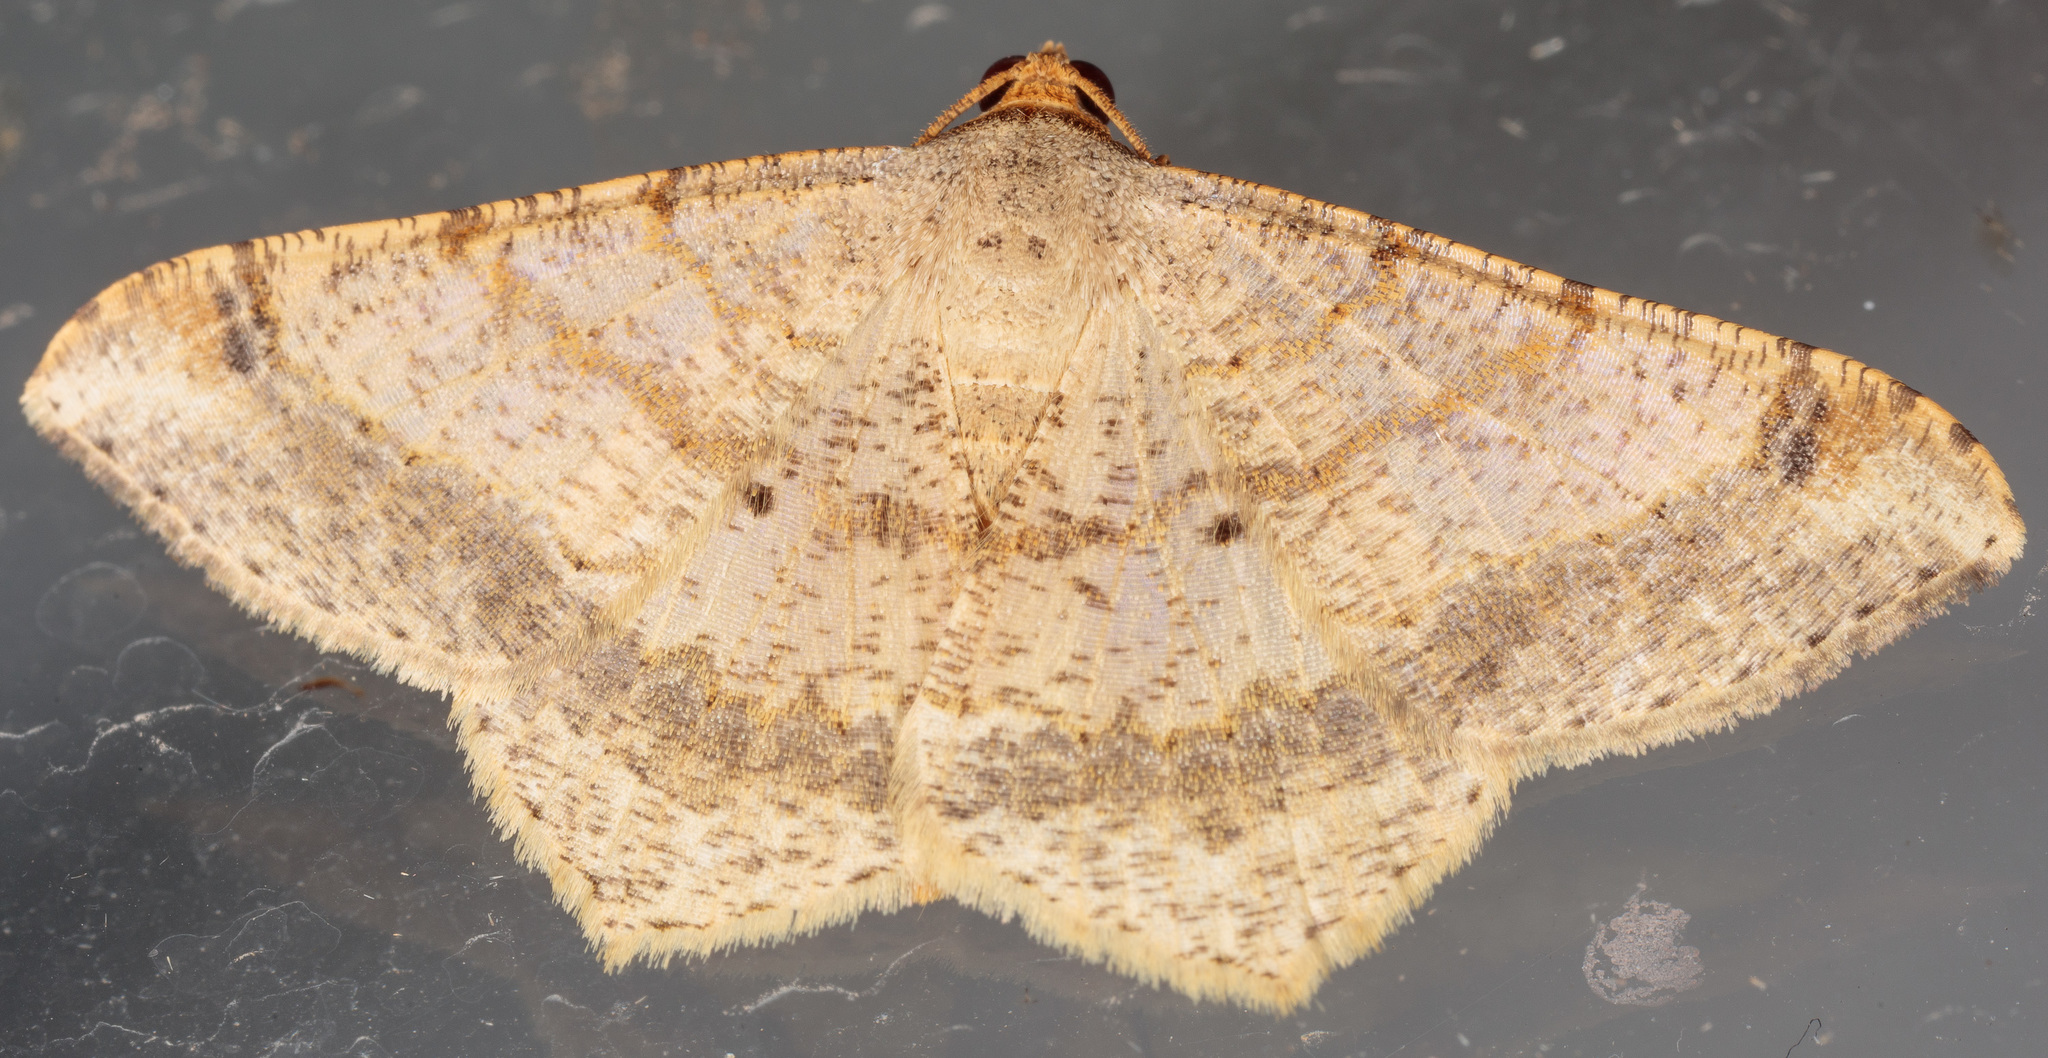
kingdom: Animalia
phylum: Arthropoda
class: Insecta
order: Lepidoptera
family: Geometridae
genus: Macaria
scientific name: Macaria abydata
